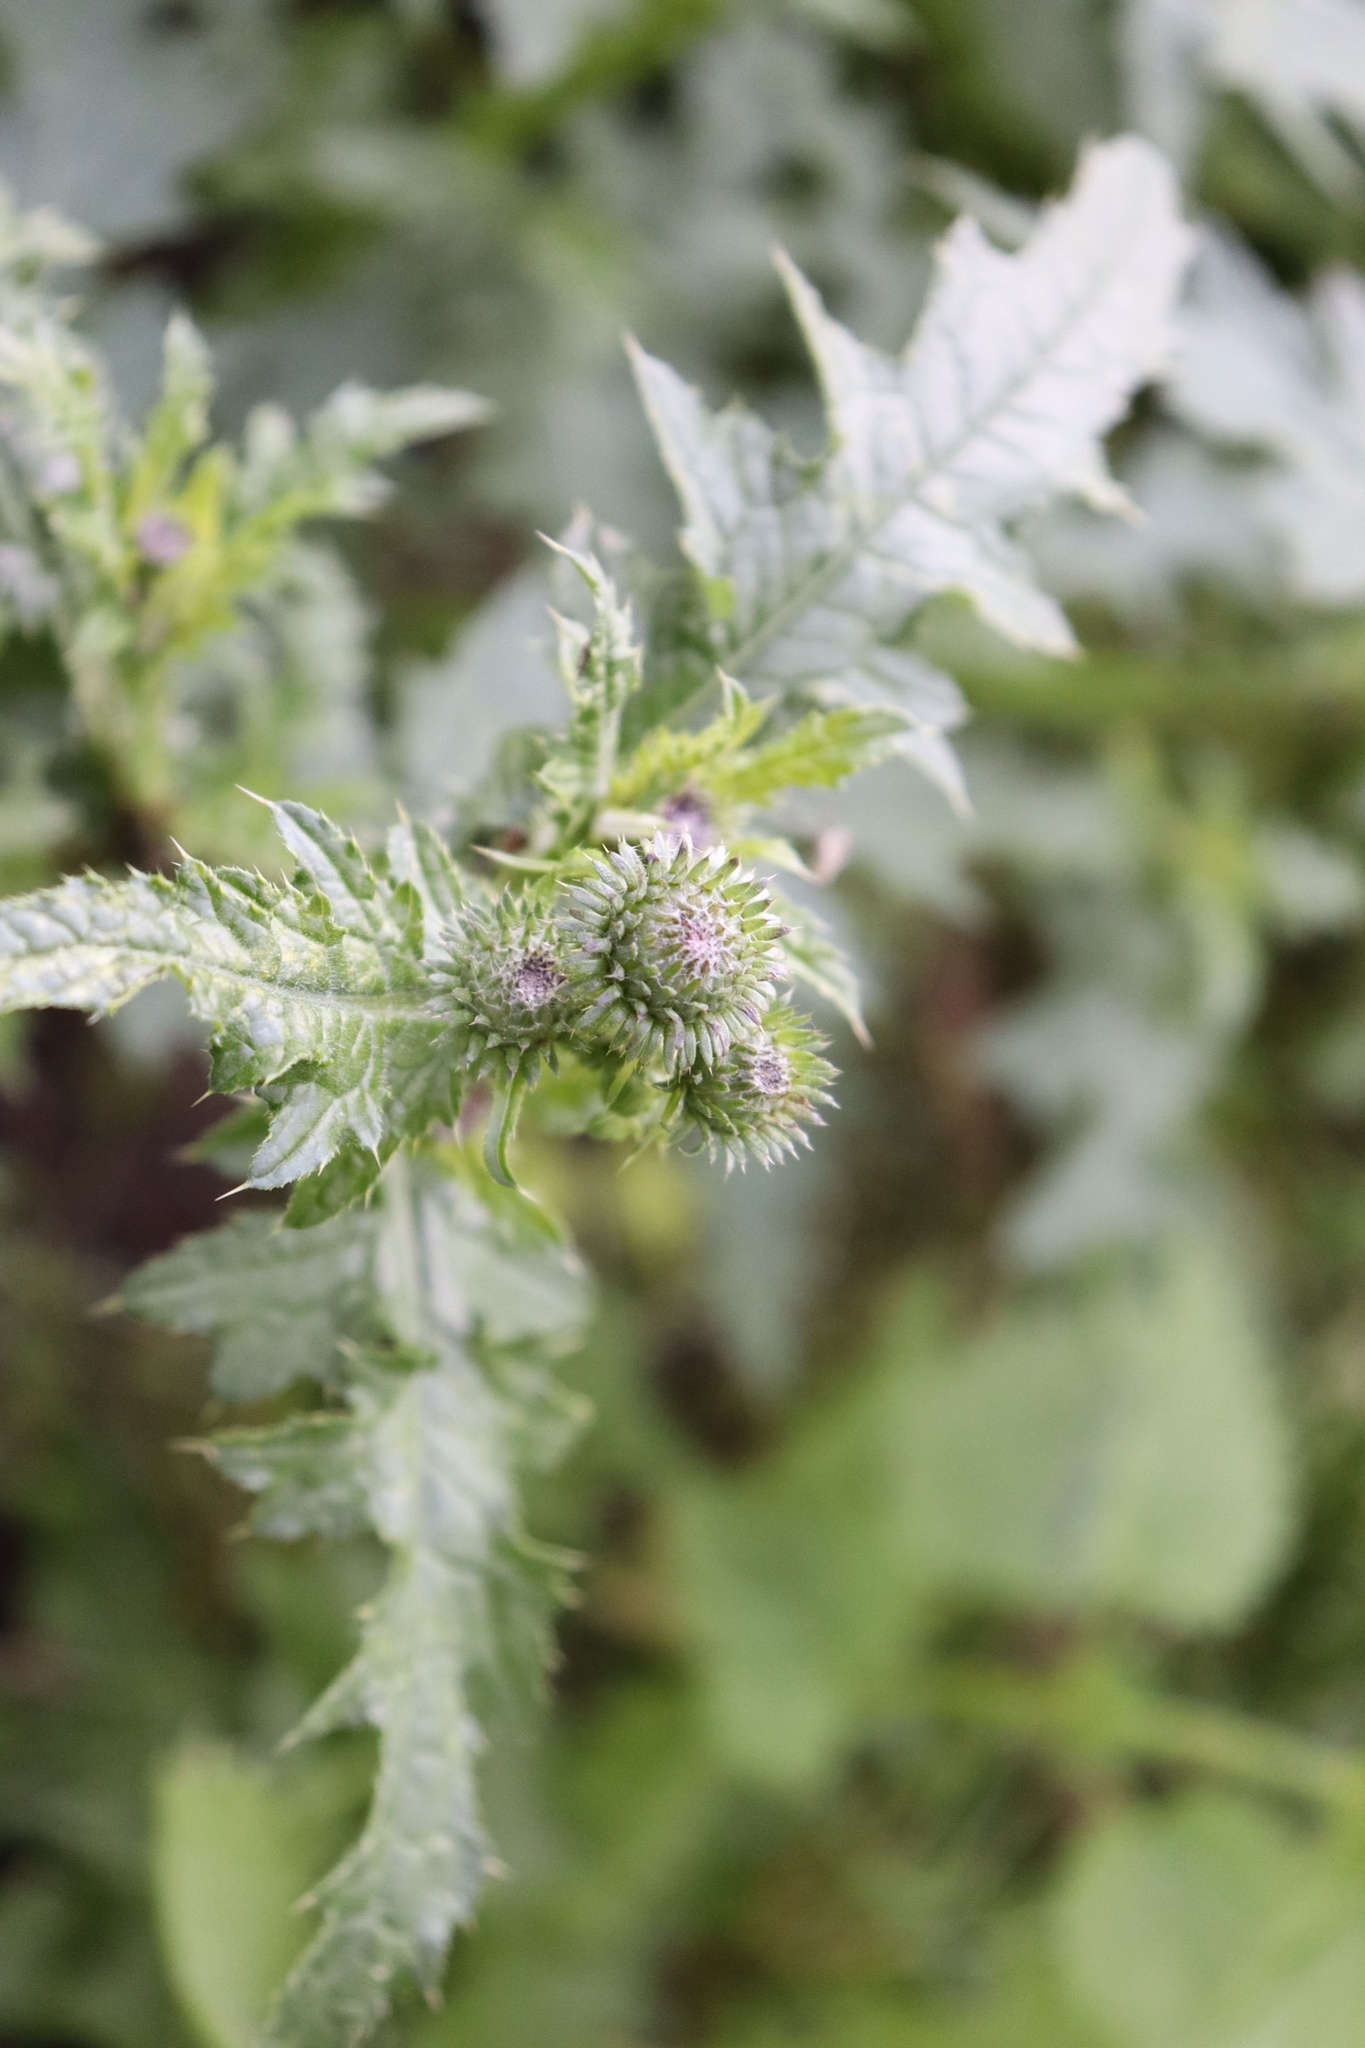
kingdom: Plantae
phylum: Tracheophyta
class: Magnoliopsida
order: Asterales
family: Asteraceae
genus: Carduus
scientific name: Carduus crispus
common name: Welted thistle
